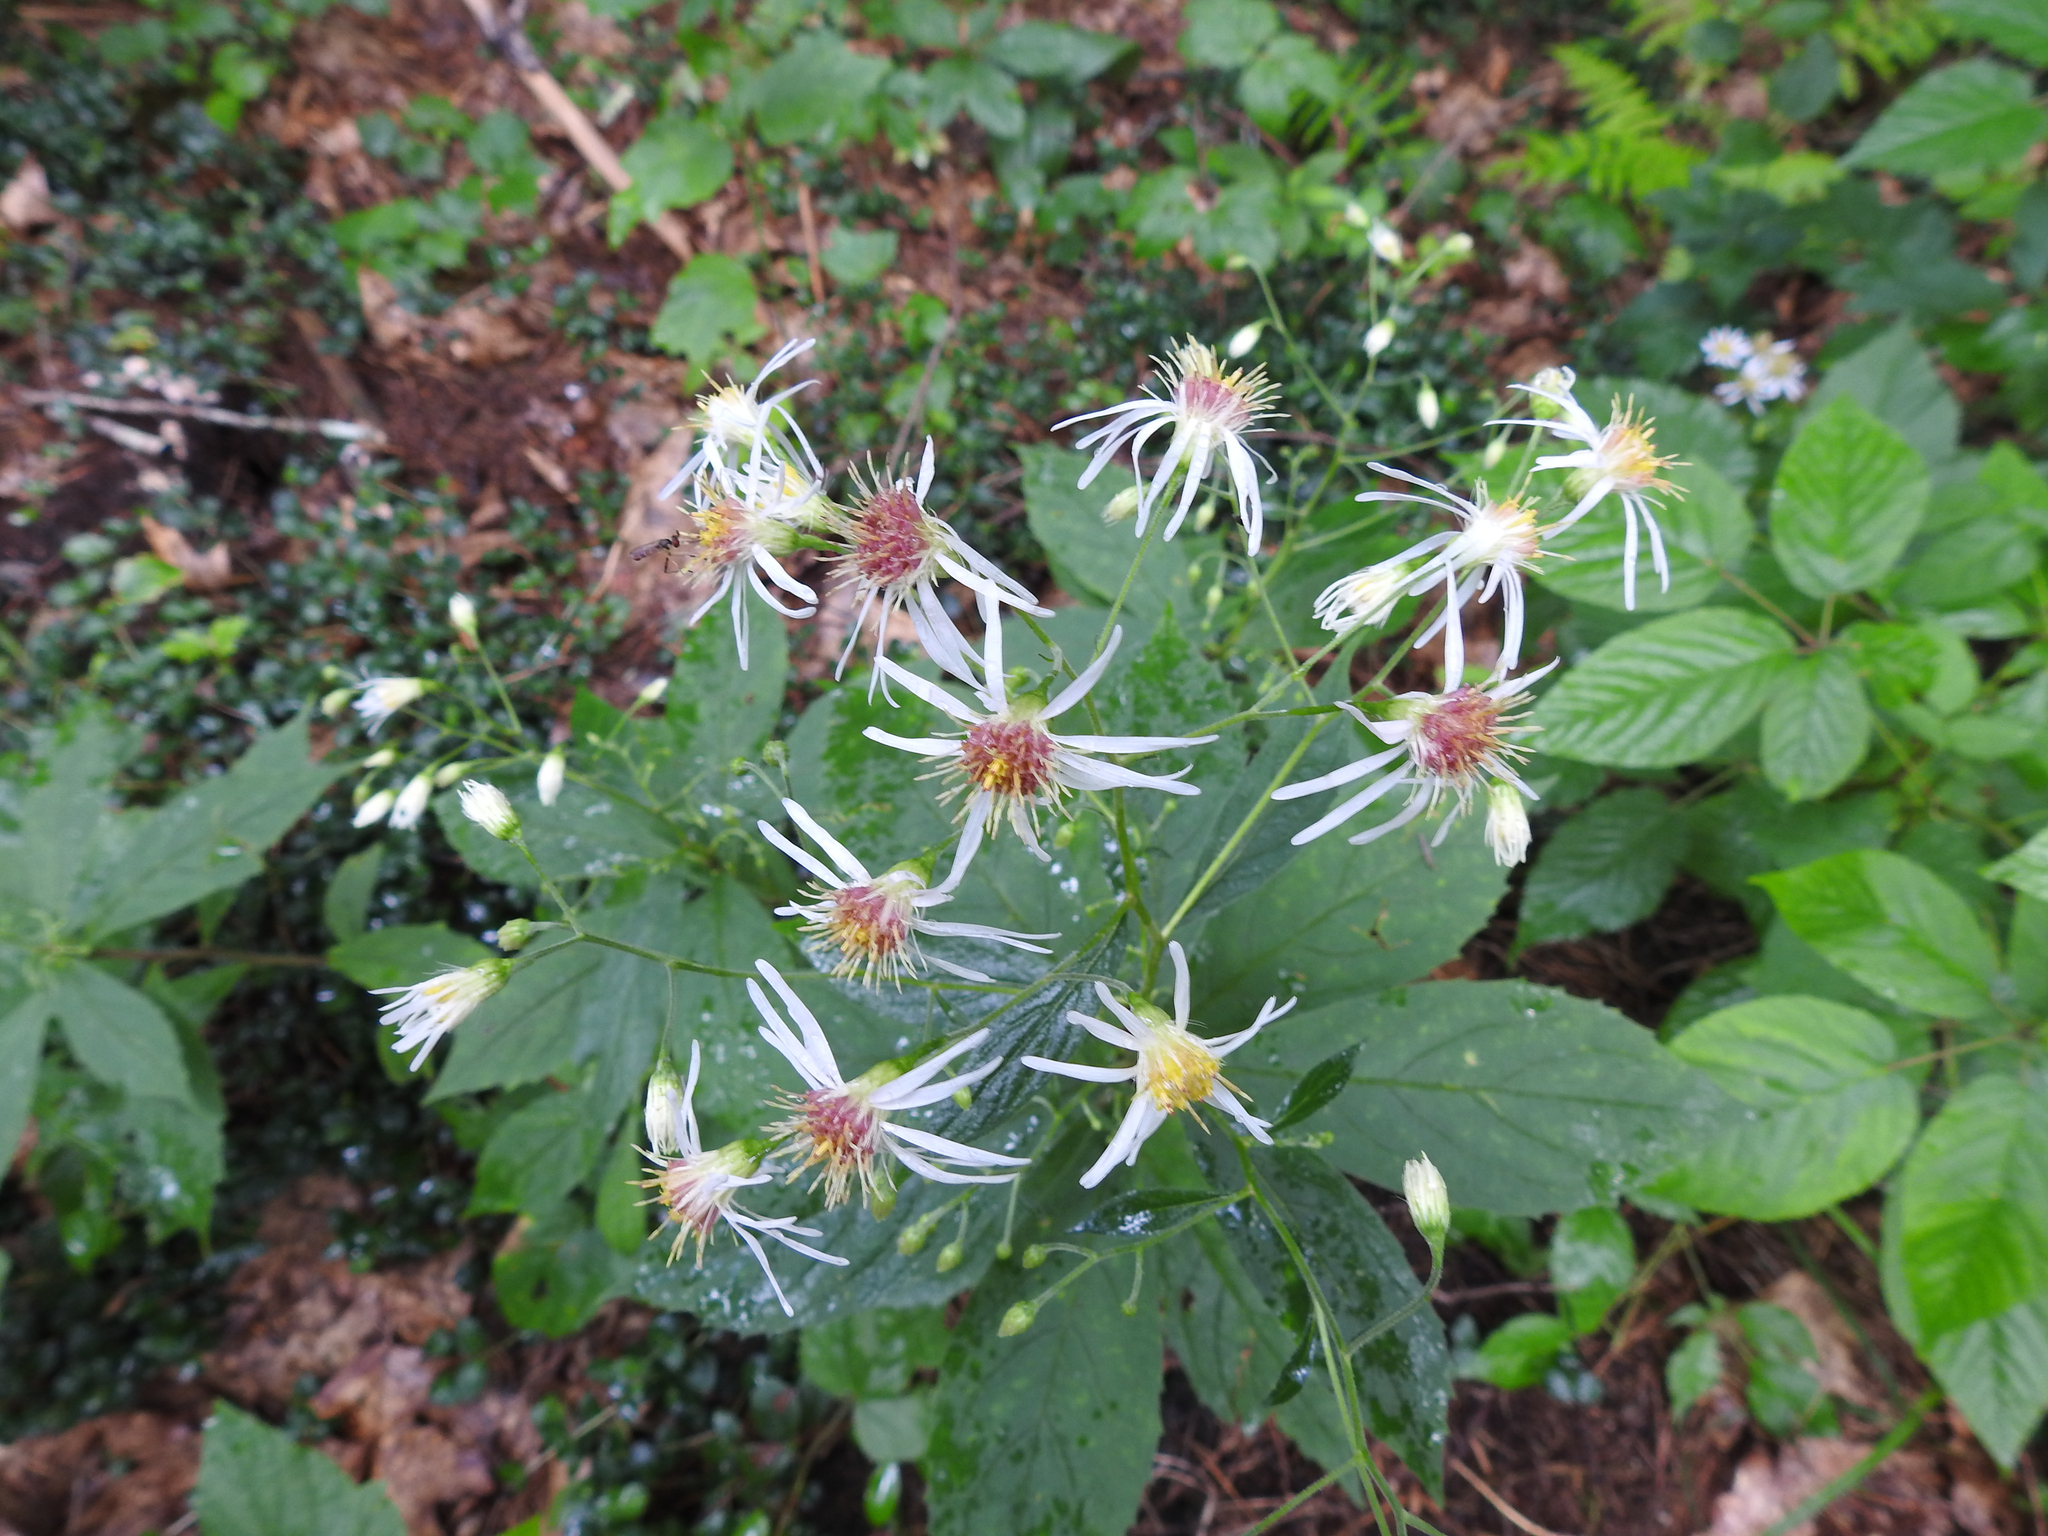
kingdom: Plantae
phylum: Tracheophyta
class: Magnoliopsida
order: Asterales
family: Asteraceae
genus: Oclemena
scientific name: Oclemena acuminata
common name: Mountain aster
